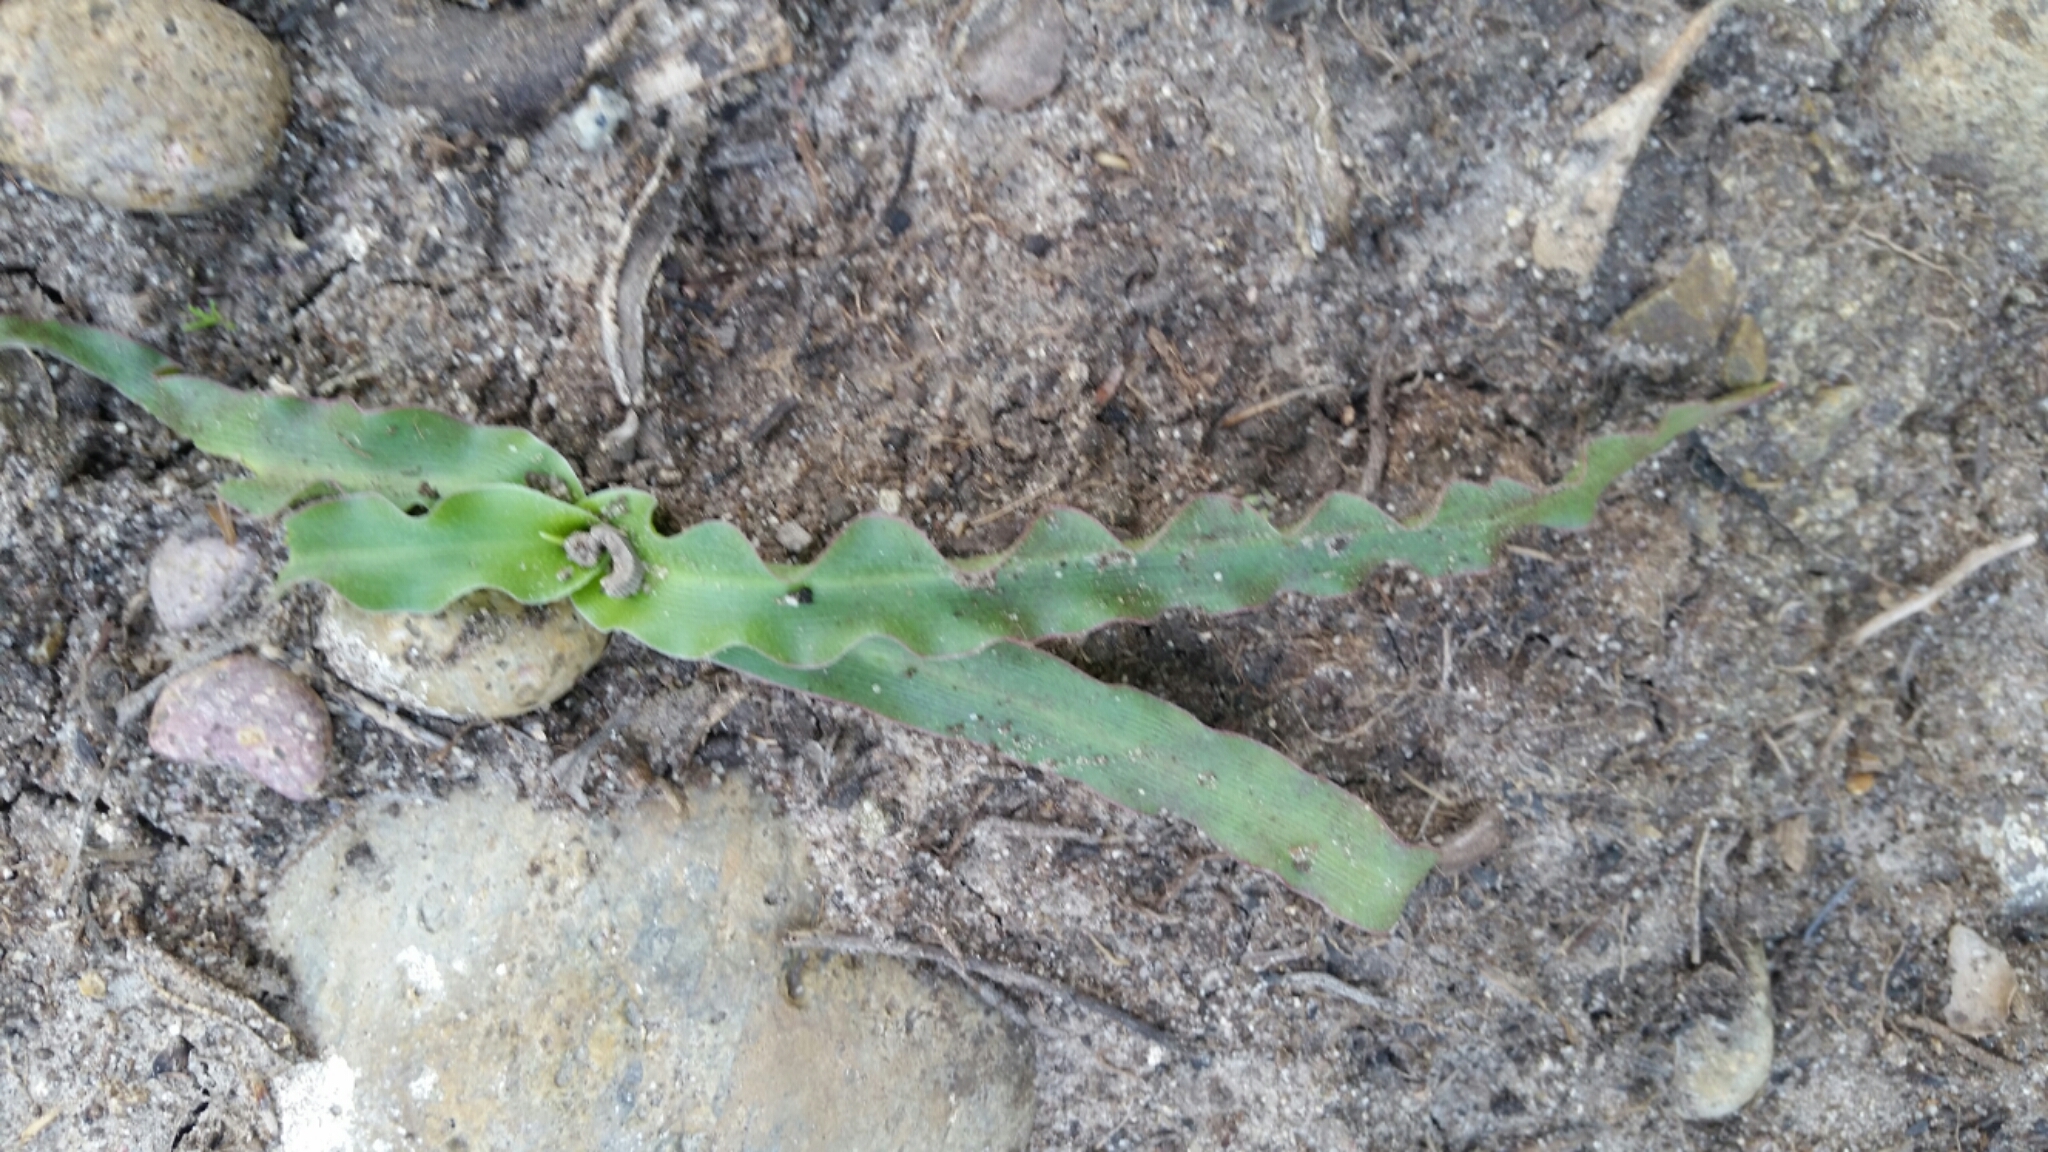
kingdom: Plantae
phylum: Tracheophyta
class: Liliopsida
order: Asparagales
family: Asparagaceae
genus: Hooveria
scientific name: Hooveria parviflora
